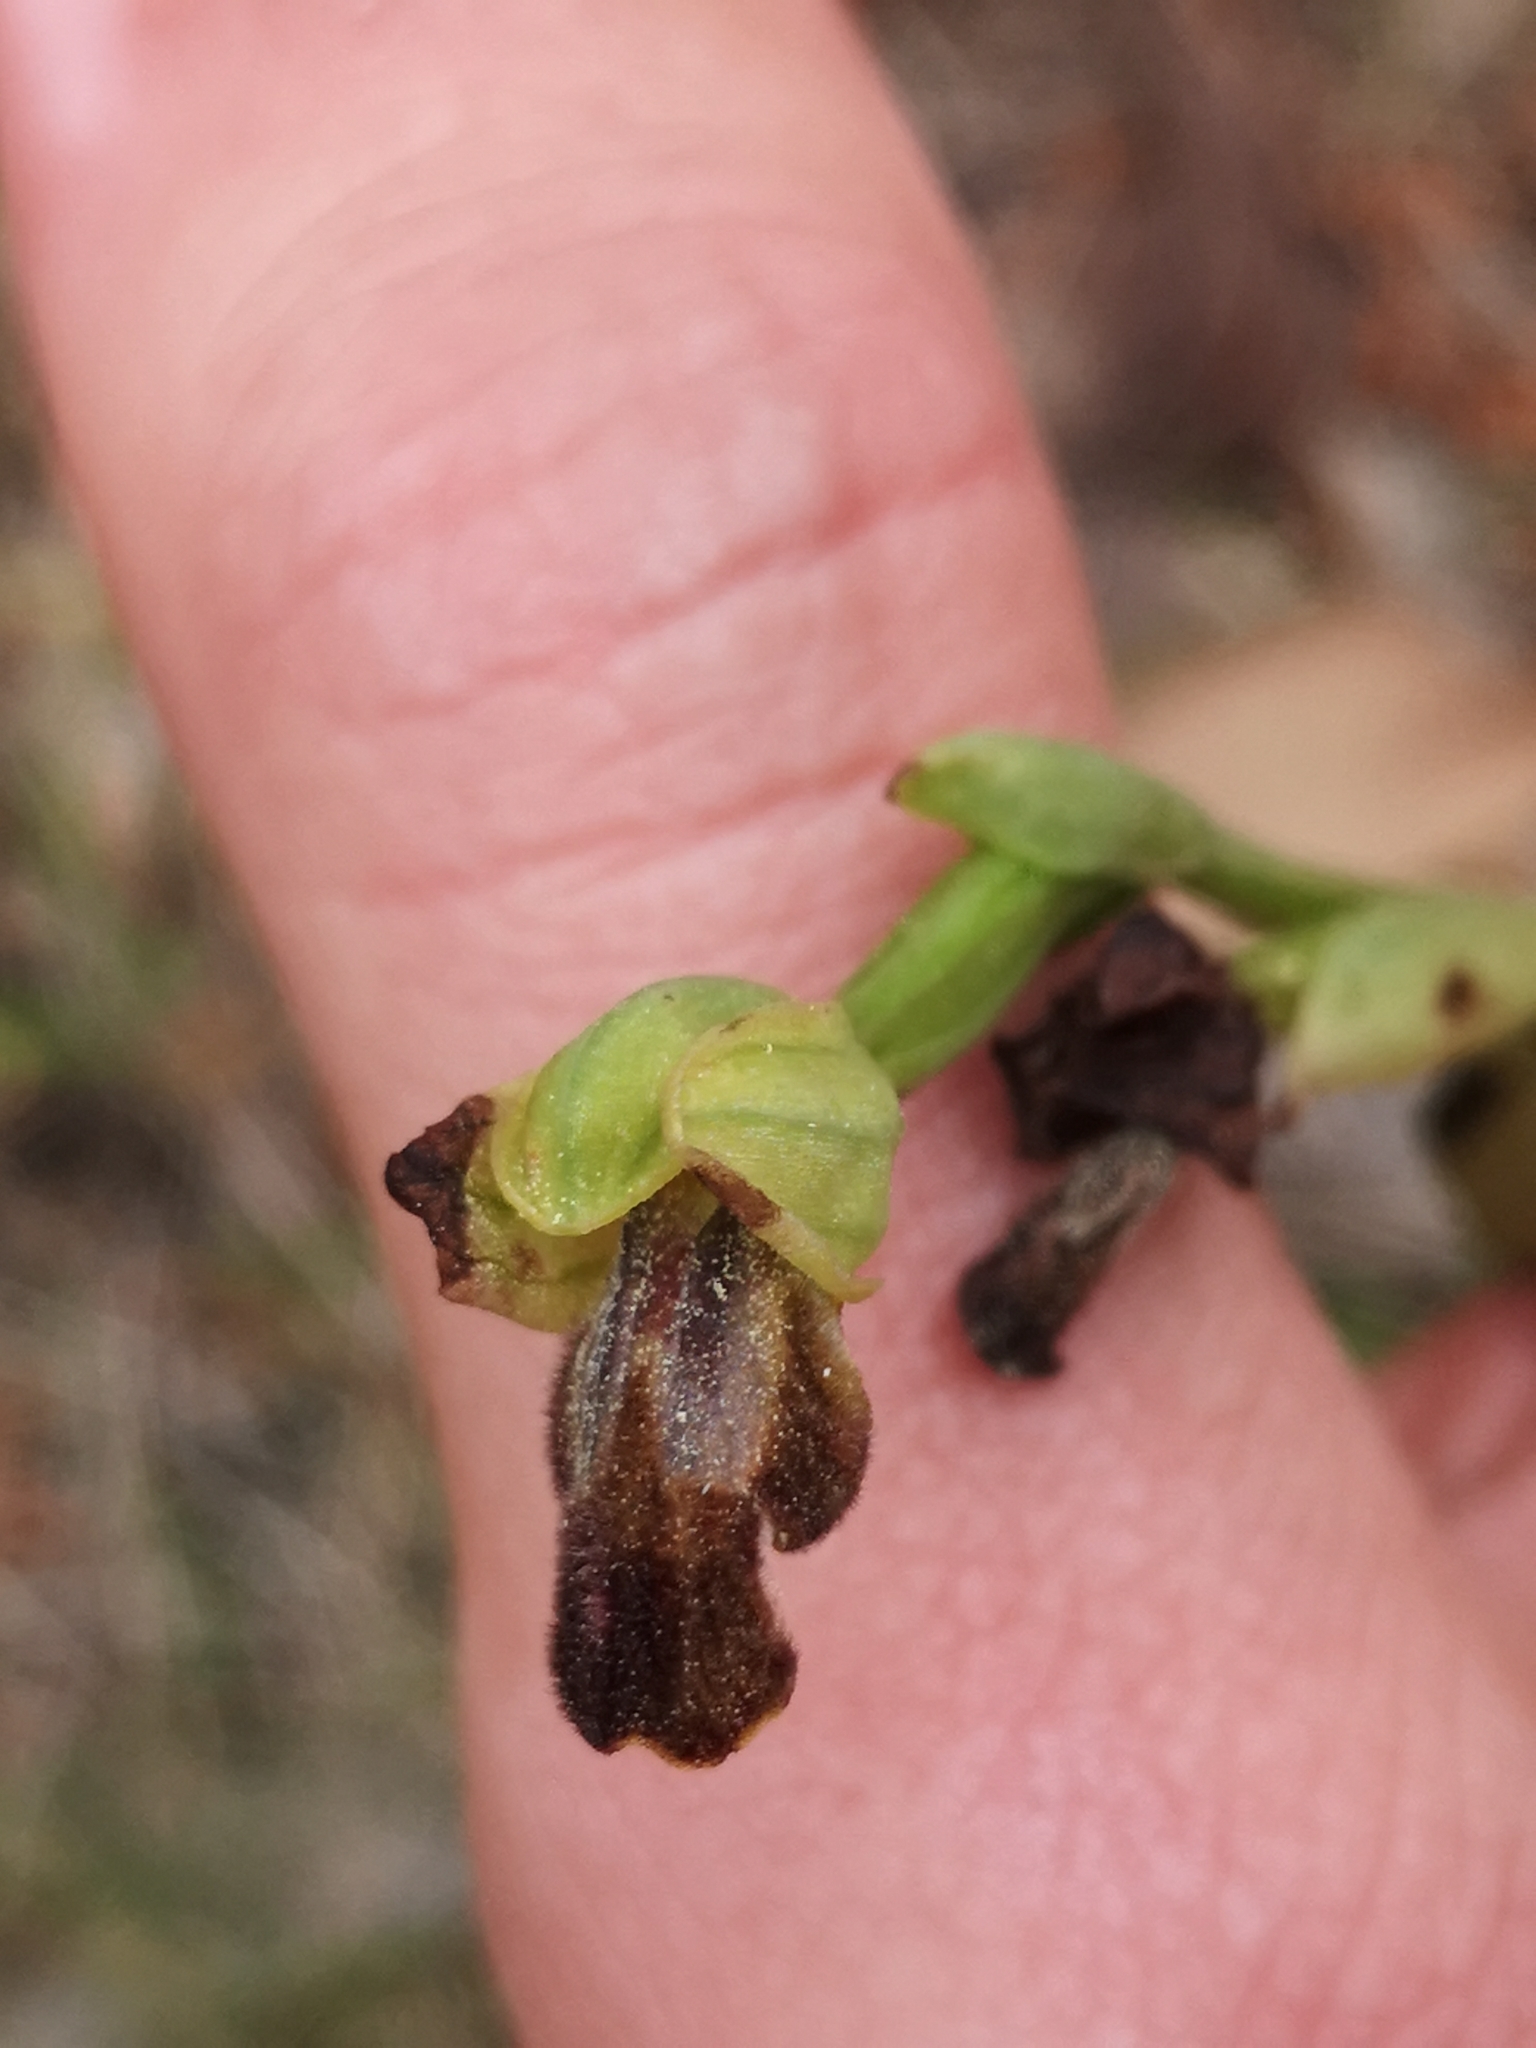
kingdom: Plantae
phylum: Tracheophyta
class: Liliopsida
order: Asparagales
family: Orchidaceae
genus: Ophrys
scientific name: Ophrys fusca
